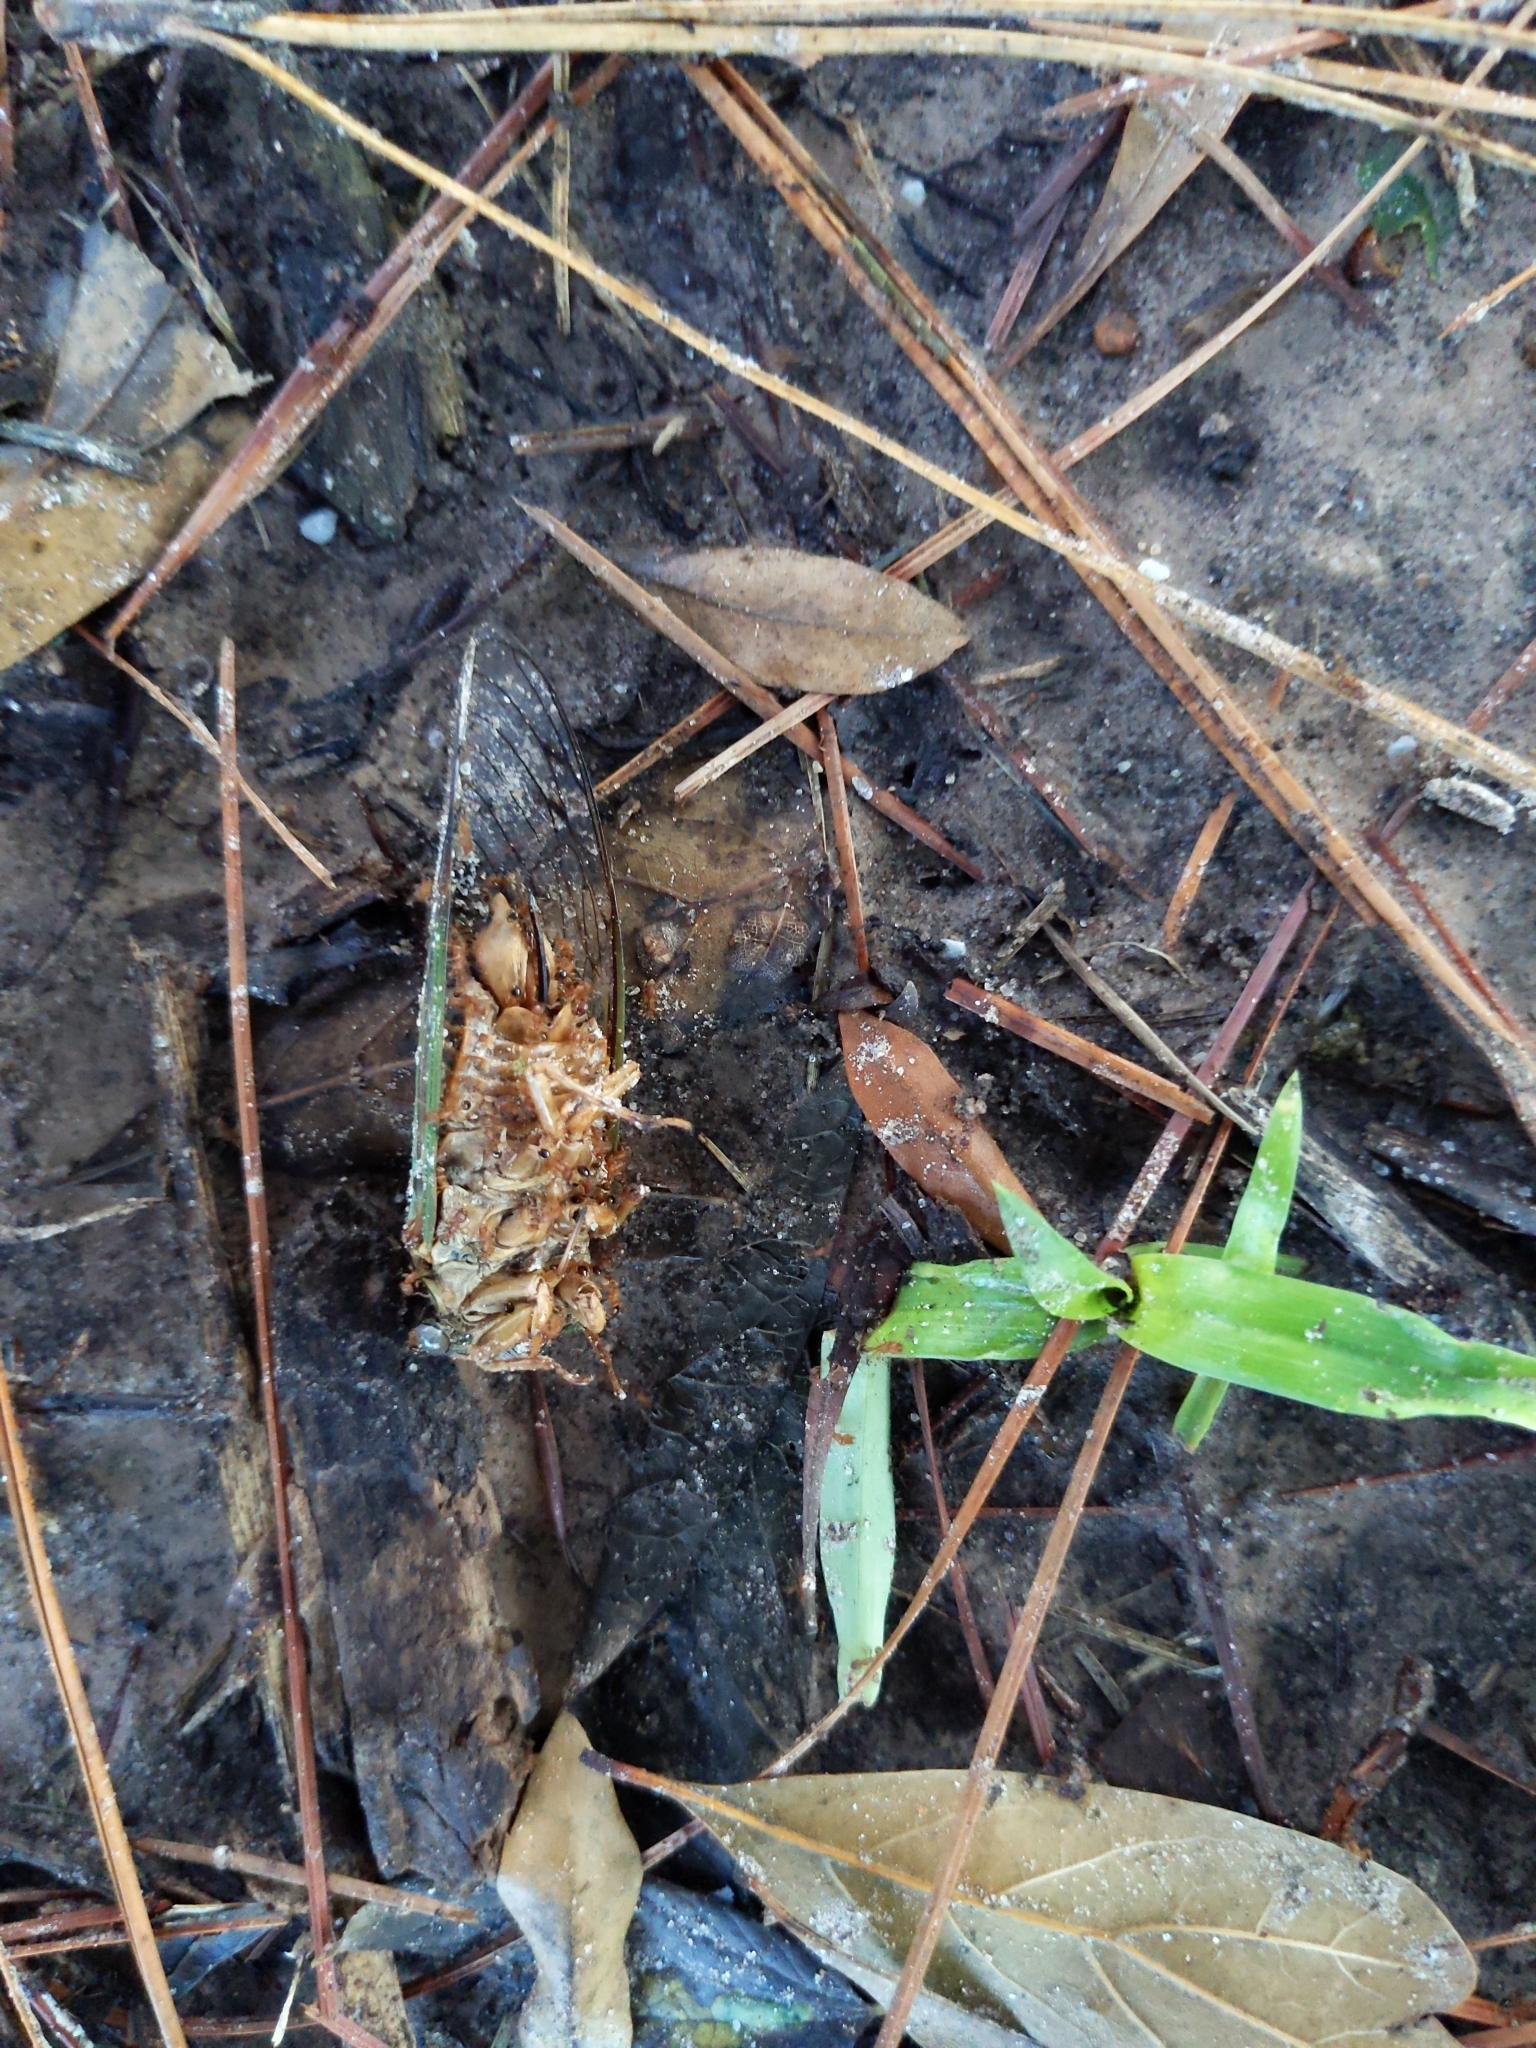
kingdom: Animalia
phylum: Arthropoda
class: Insecta
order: Hemiptera
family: Cicadidae
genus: Megatibicen
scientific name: Megatibicen resh
